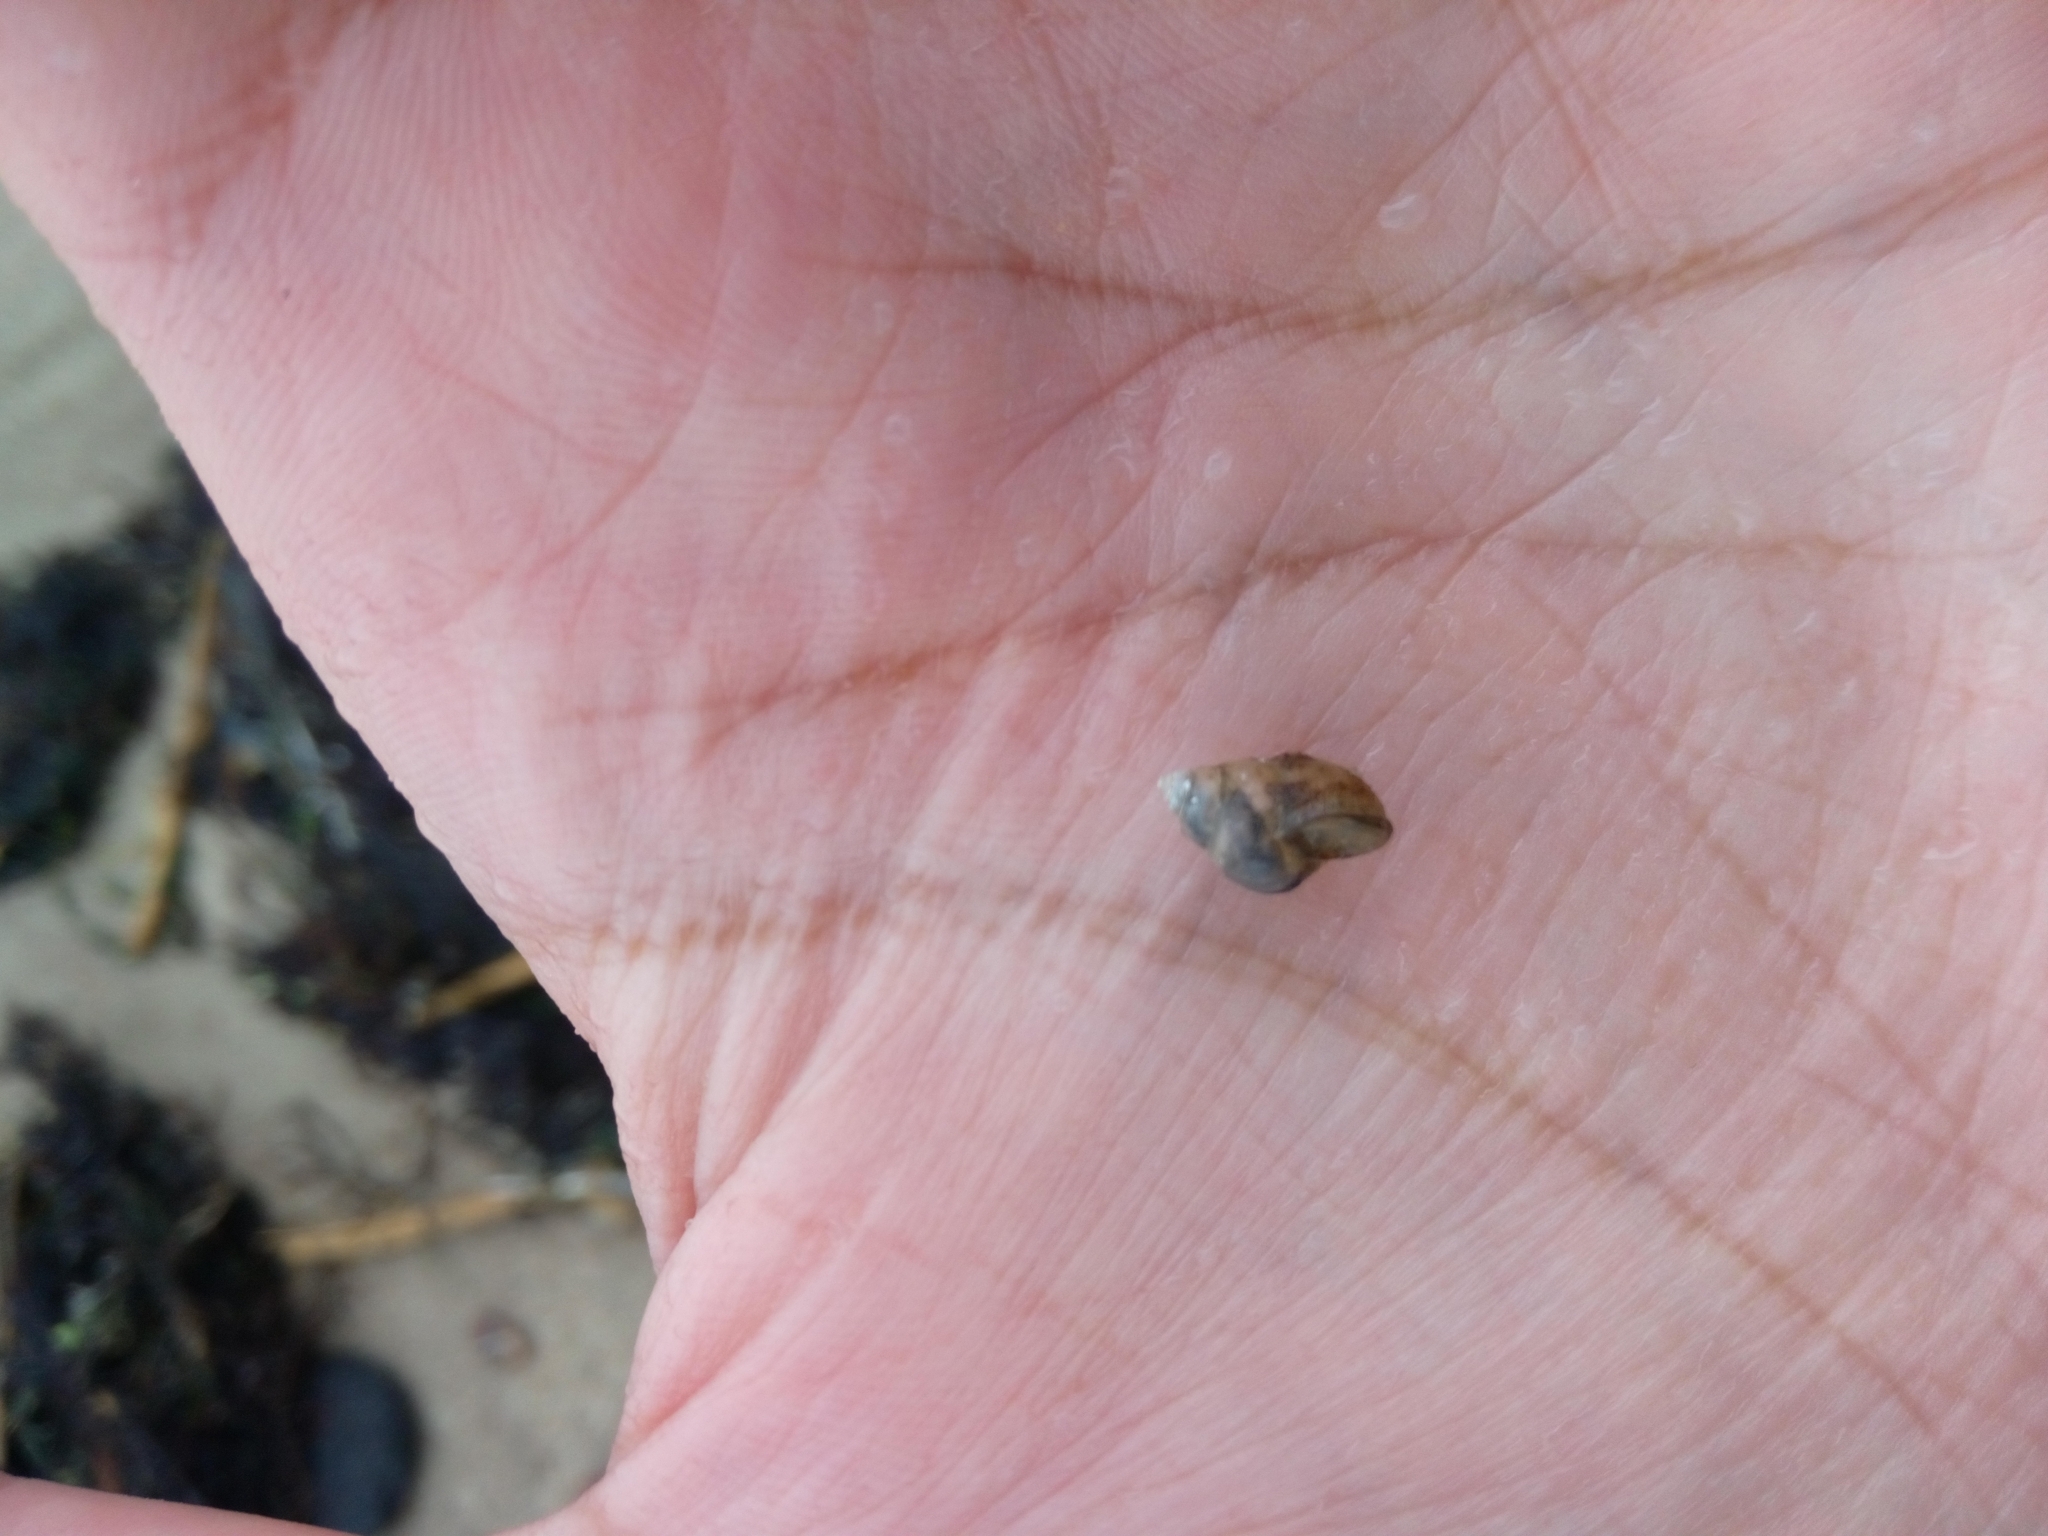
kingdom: Animalia
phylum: Mollusca
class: Gastropoda
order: Littorinimorpha
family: Bithyniidae
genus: Bithynia
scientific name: Bithynia tentaculata
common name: Common bithynia
